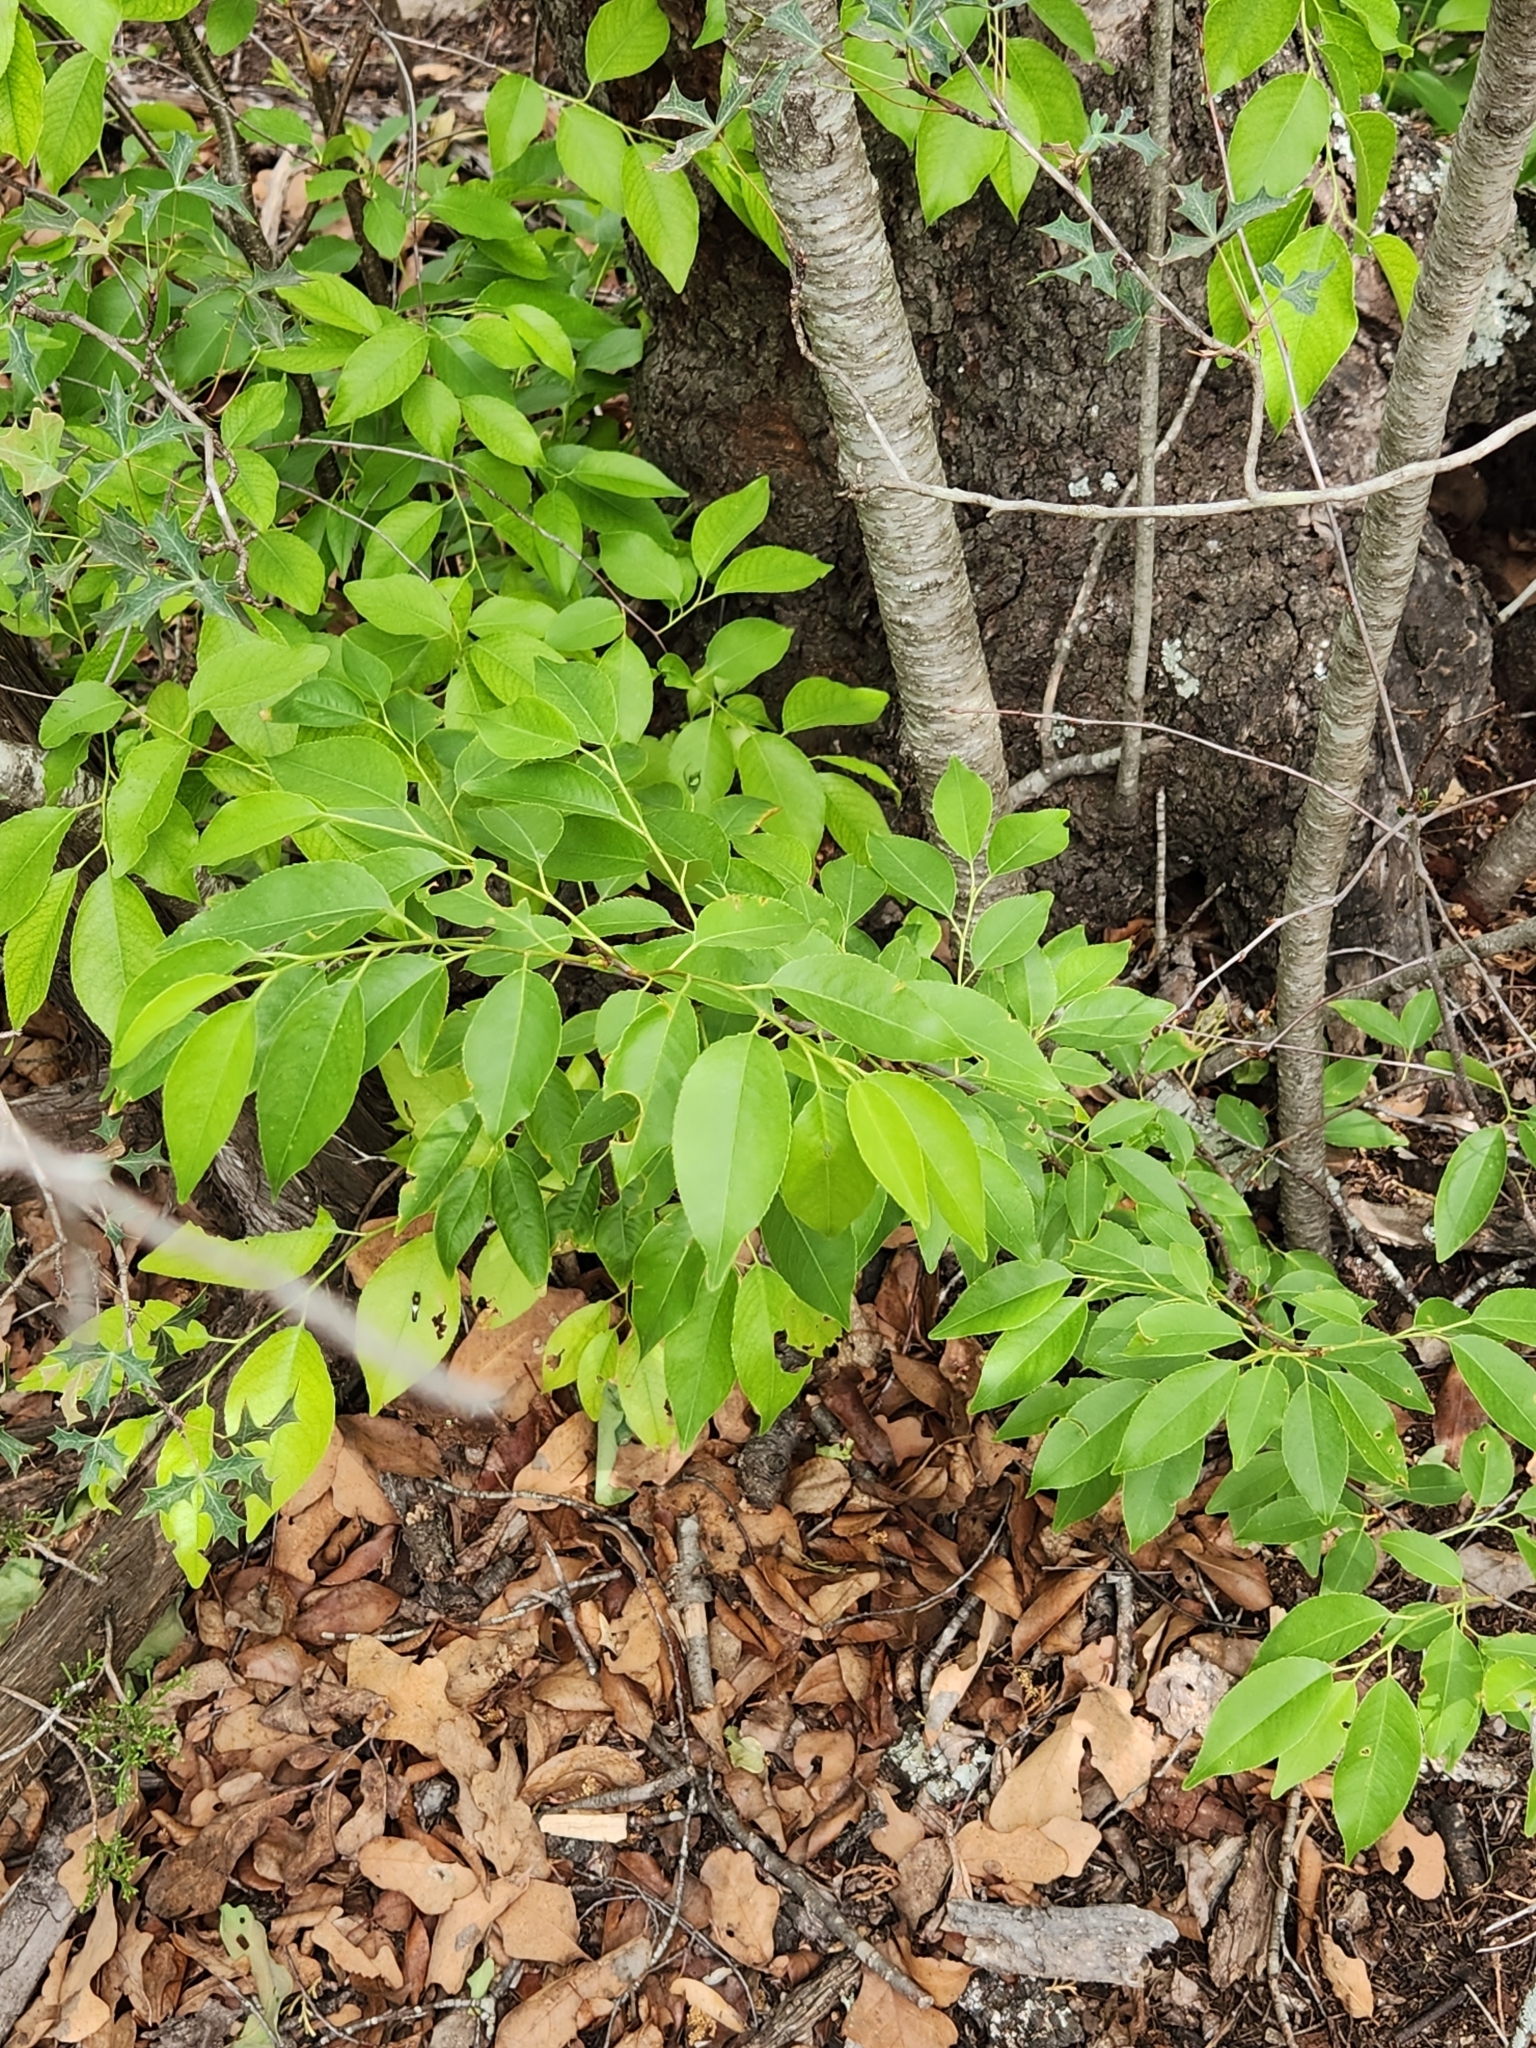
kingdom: Plantae
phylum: Tracheophyta
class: Magnoliopsida
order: Rosales
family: Rosaceae
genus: Prunus
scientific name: Prunus serotina
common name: Black cherry
